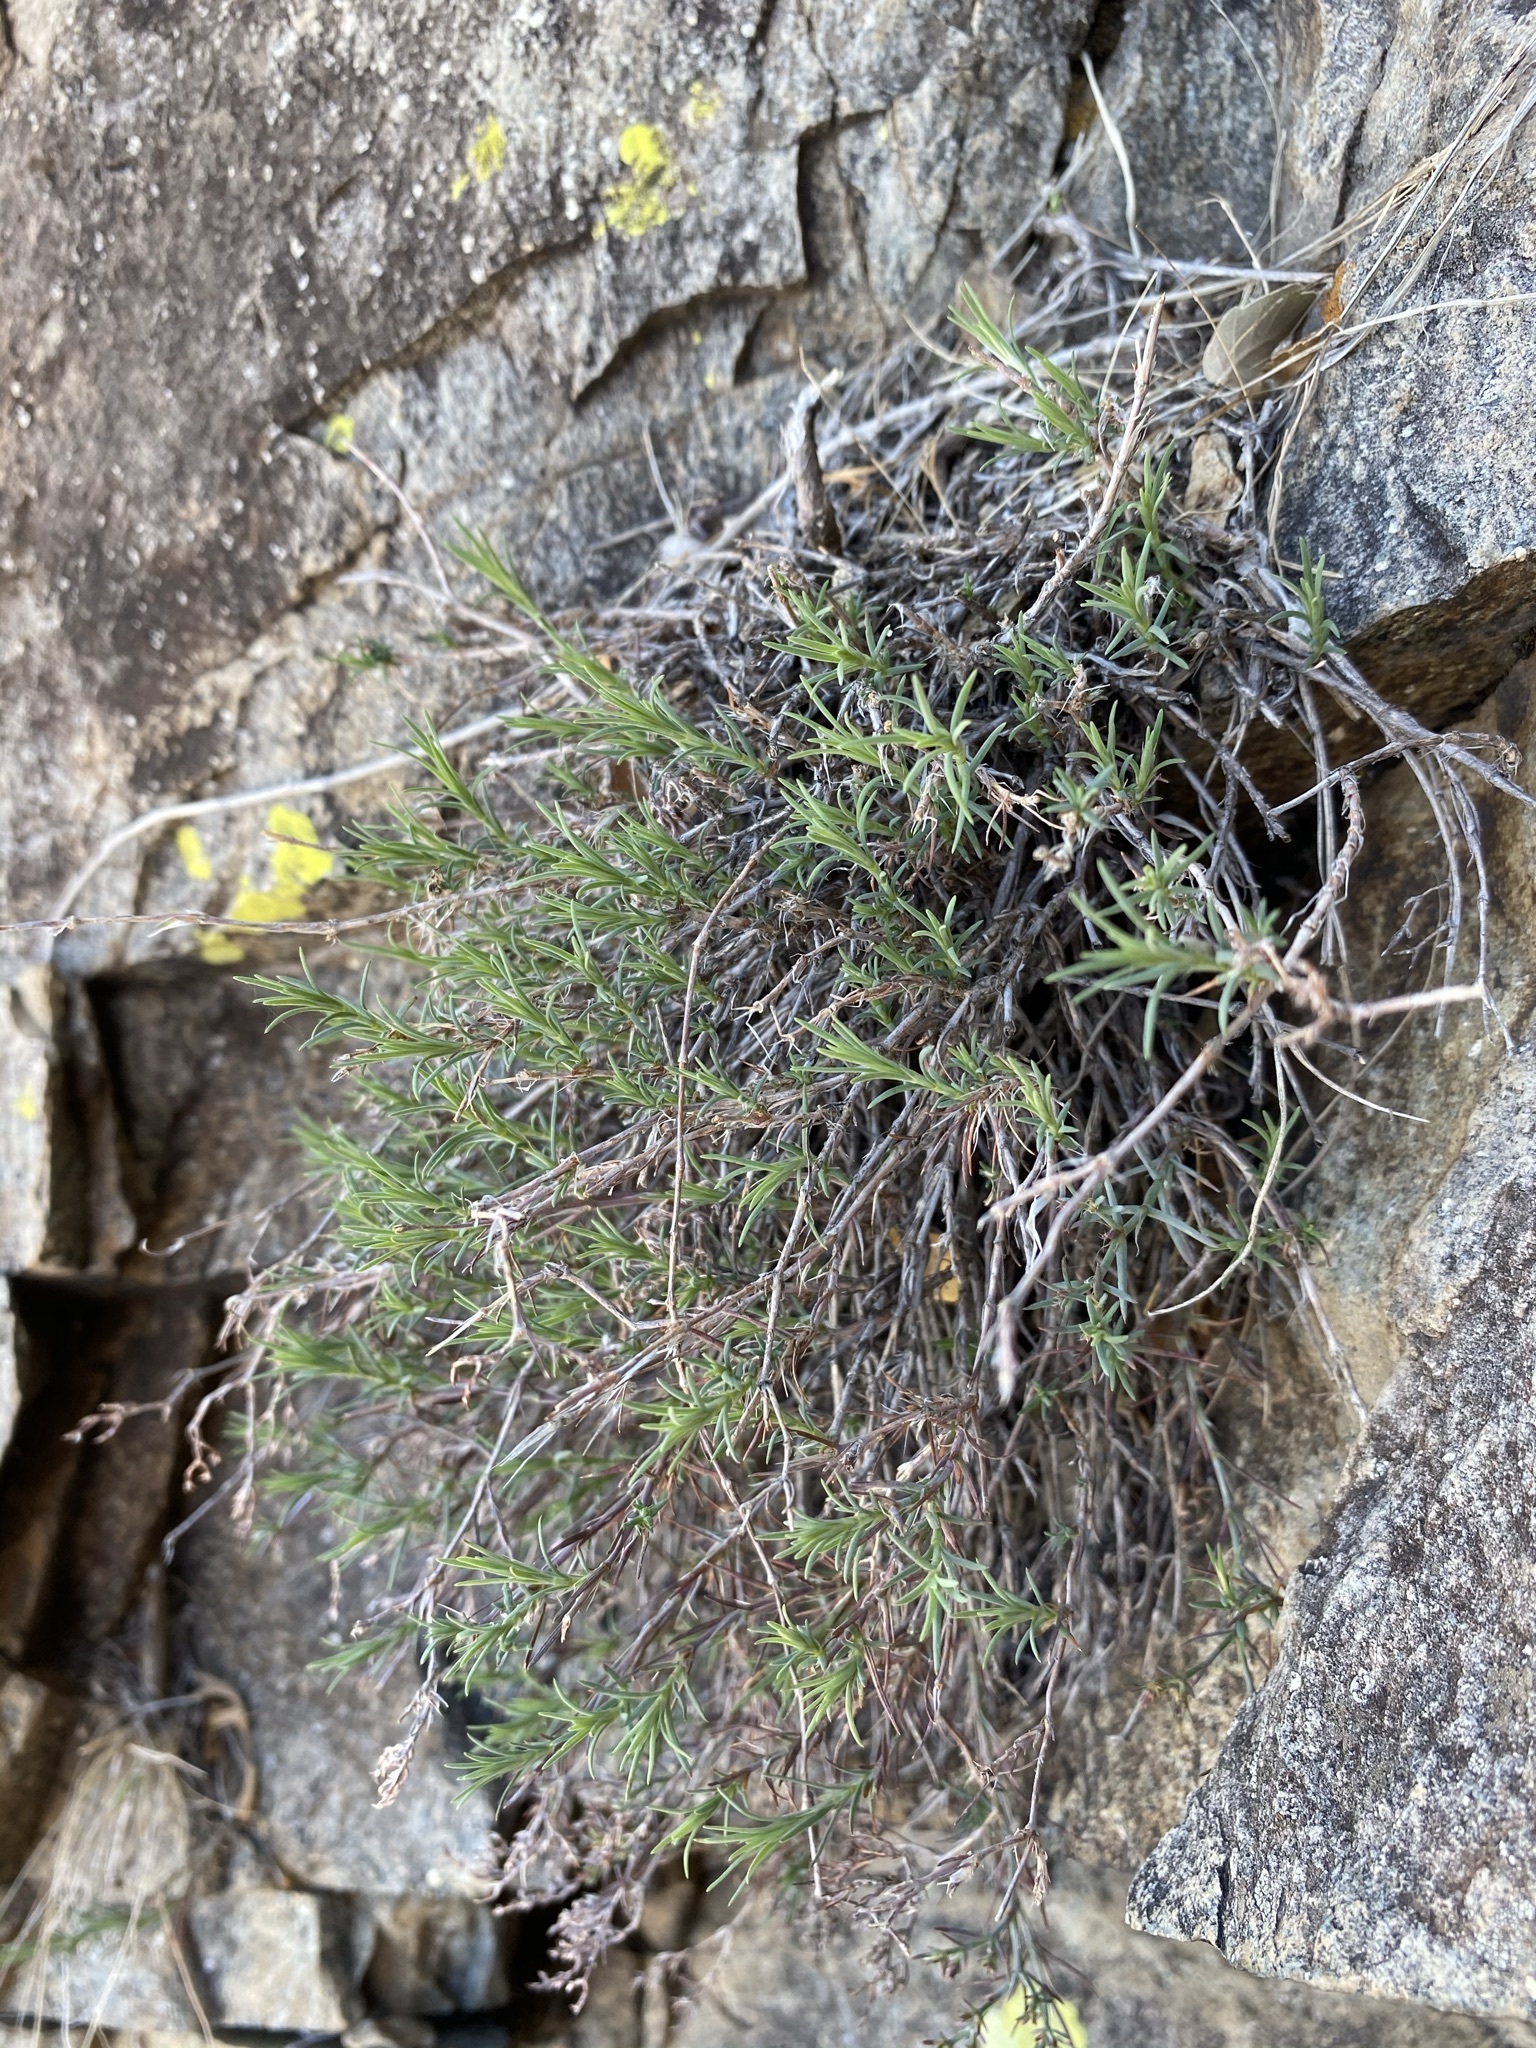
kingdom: Plantae
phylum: Tracheophyta
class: Magnoliopsida
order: Caryophyllales
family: Caryophyllaceae
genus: Paronychia
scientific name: Paronychia jamesii
